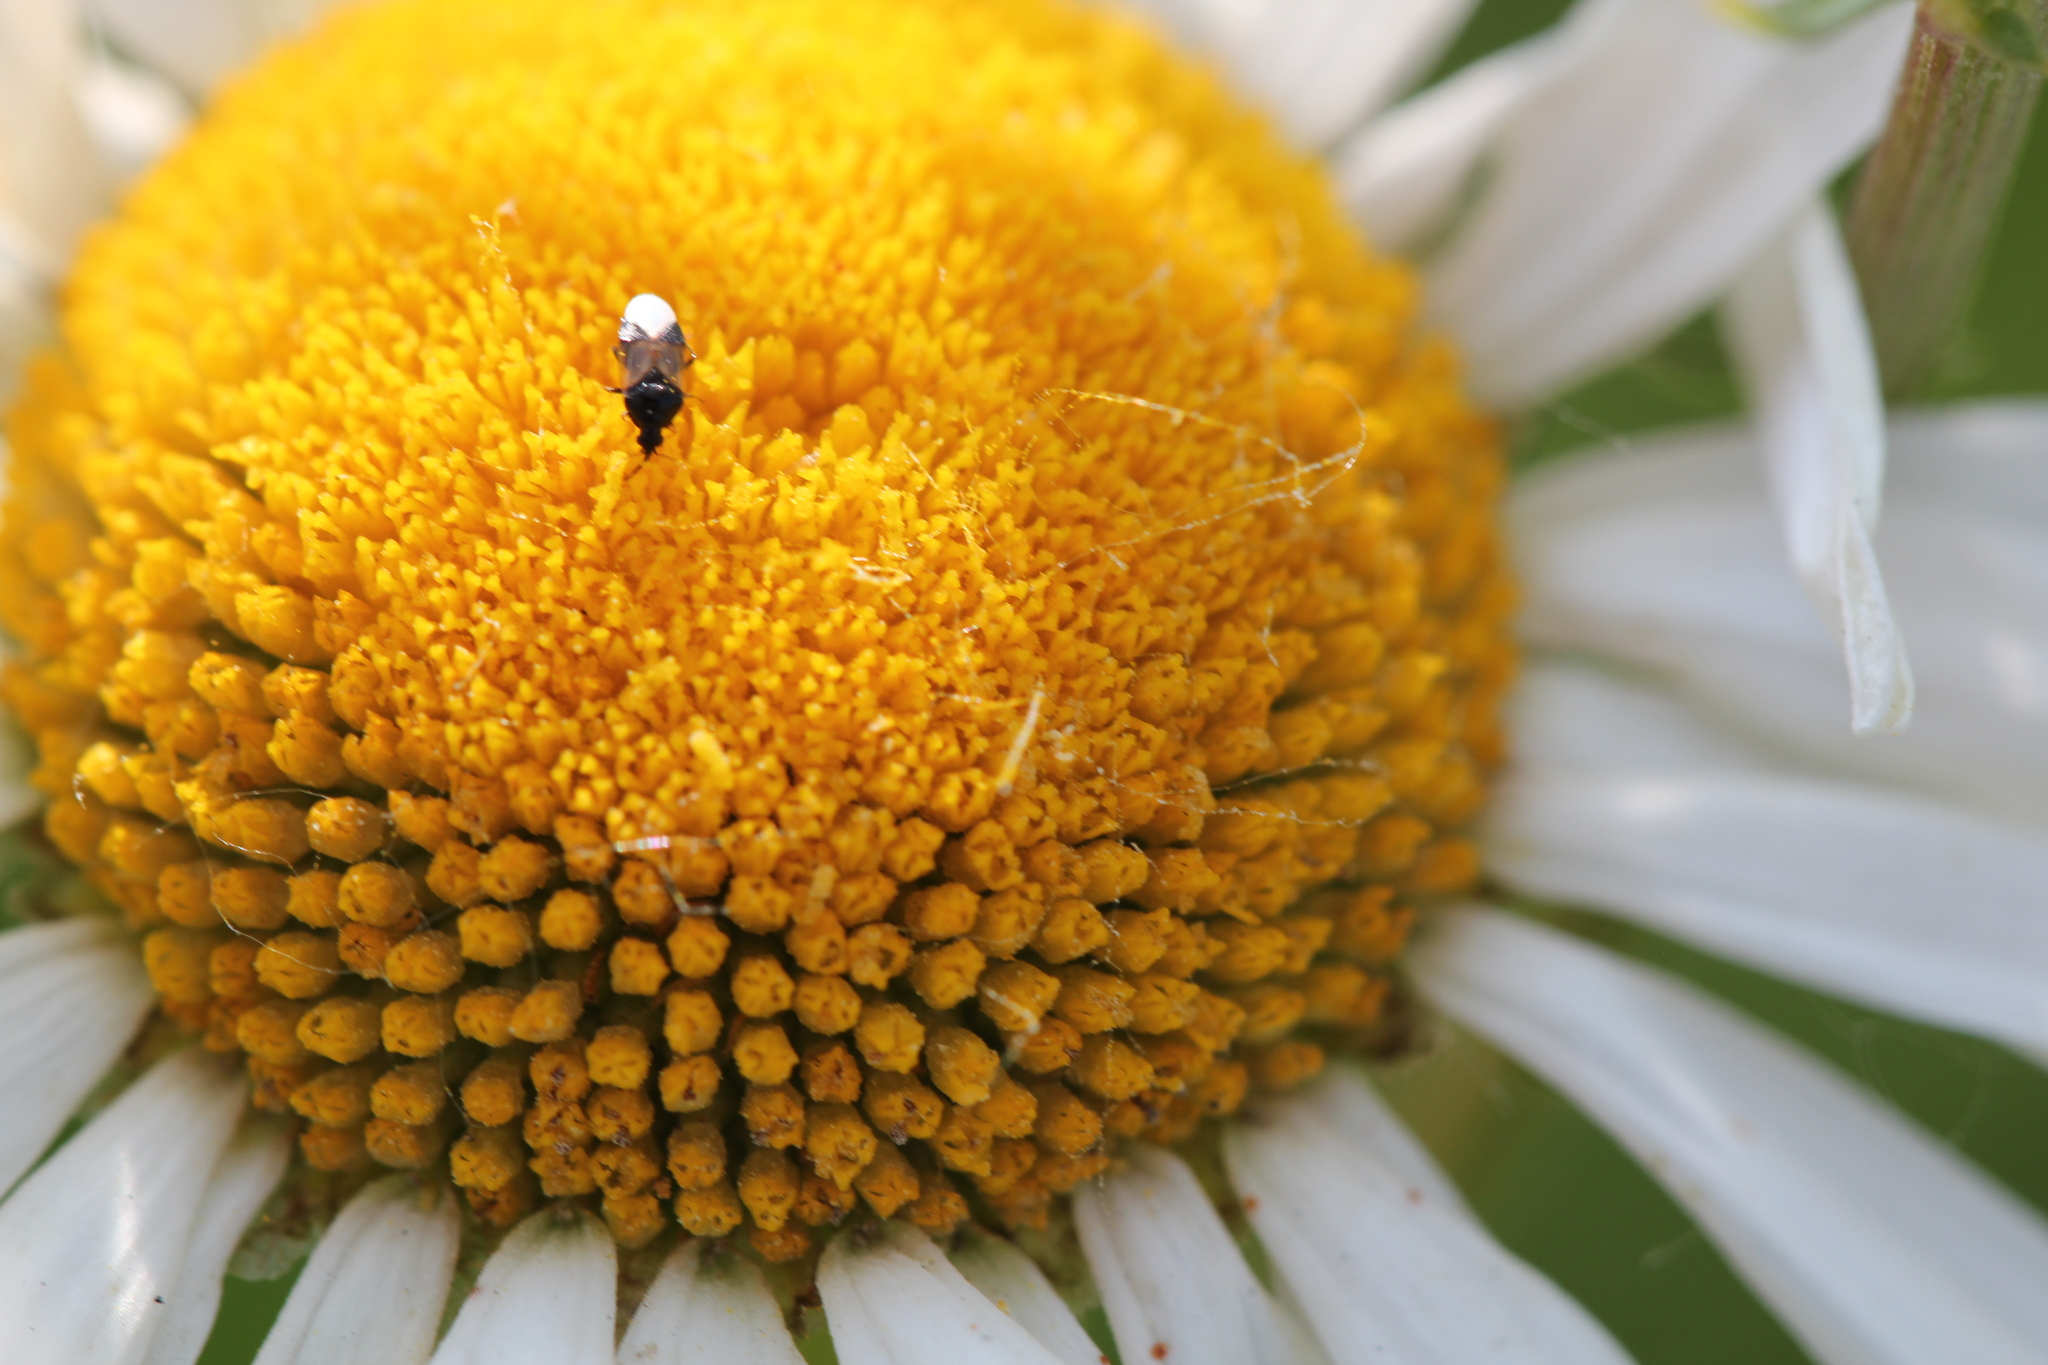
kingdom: Animalia
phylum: Arthropoda
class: Insecta
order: Hemiptera
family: Anthocoridae
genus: Orius
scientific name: Orius insidiosus
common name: Insidious flower bug
